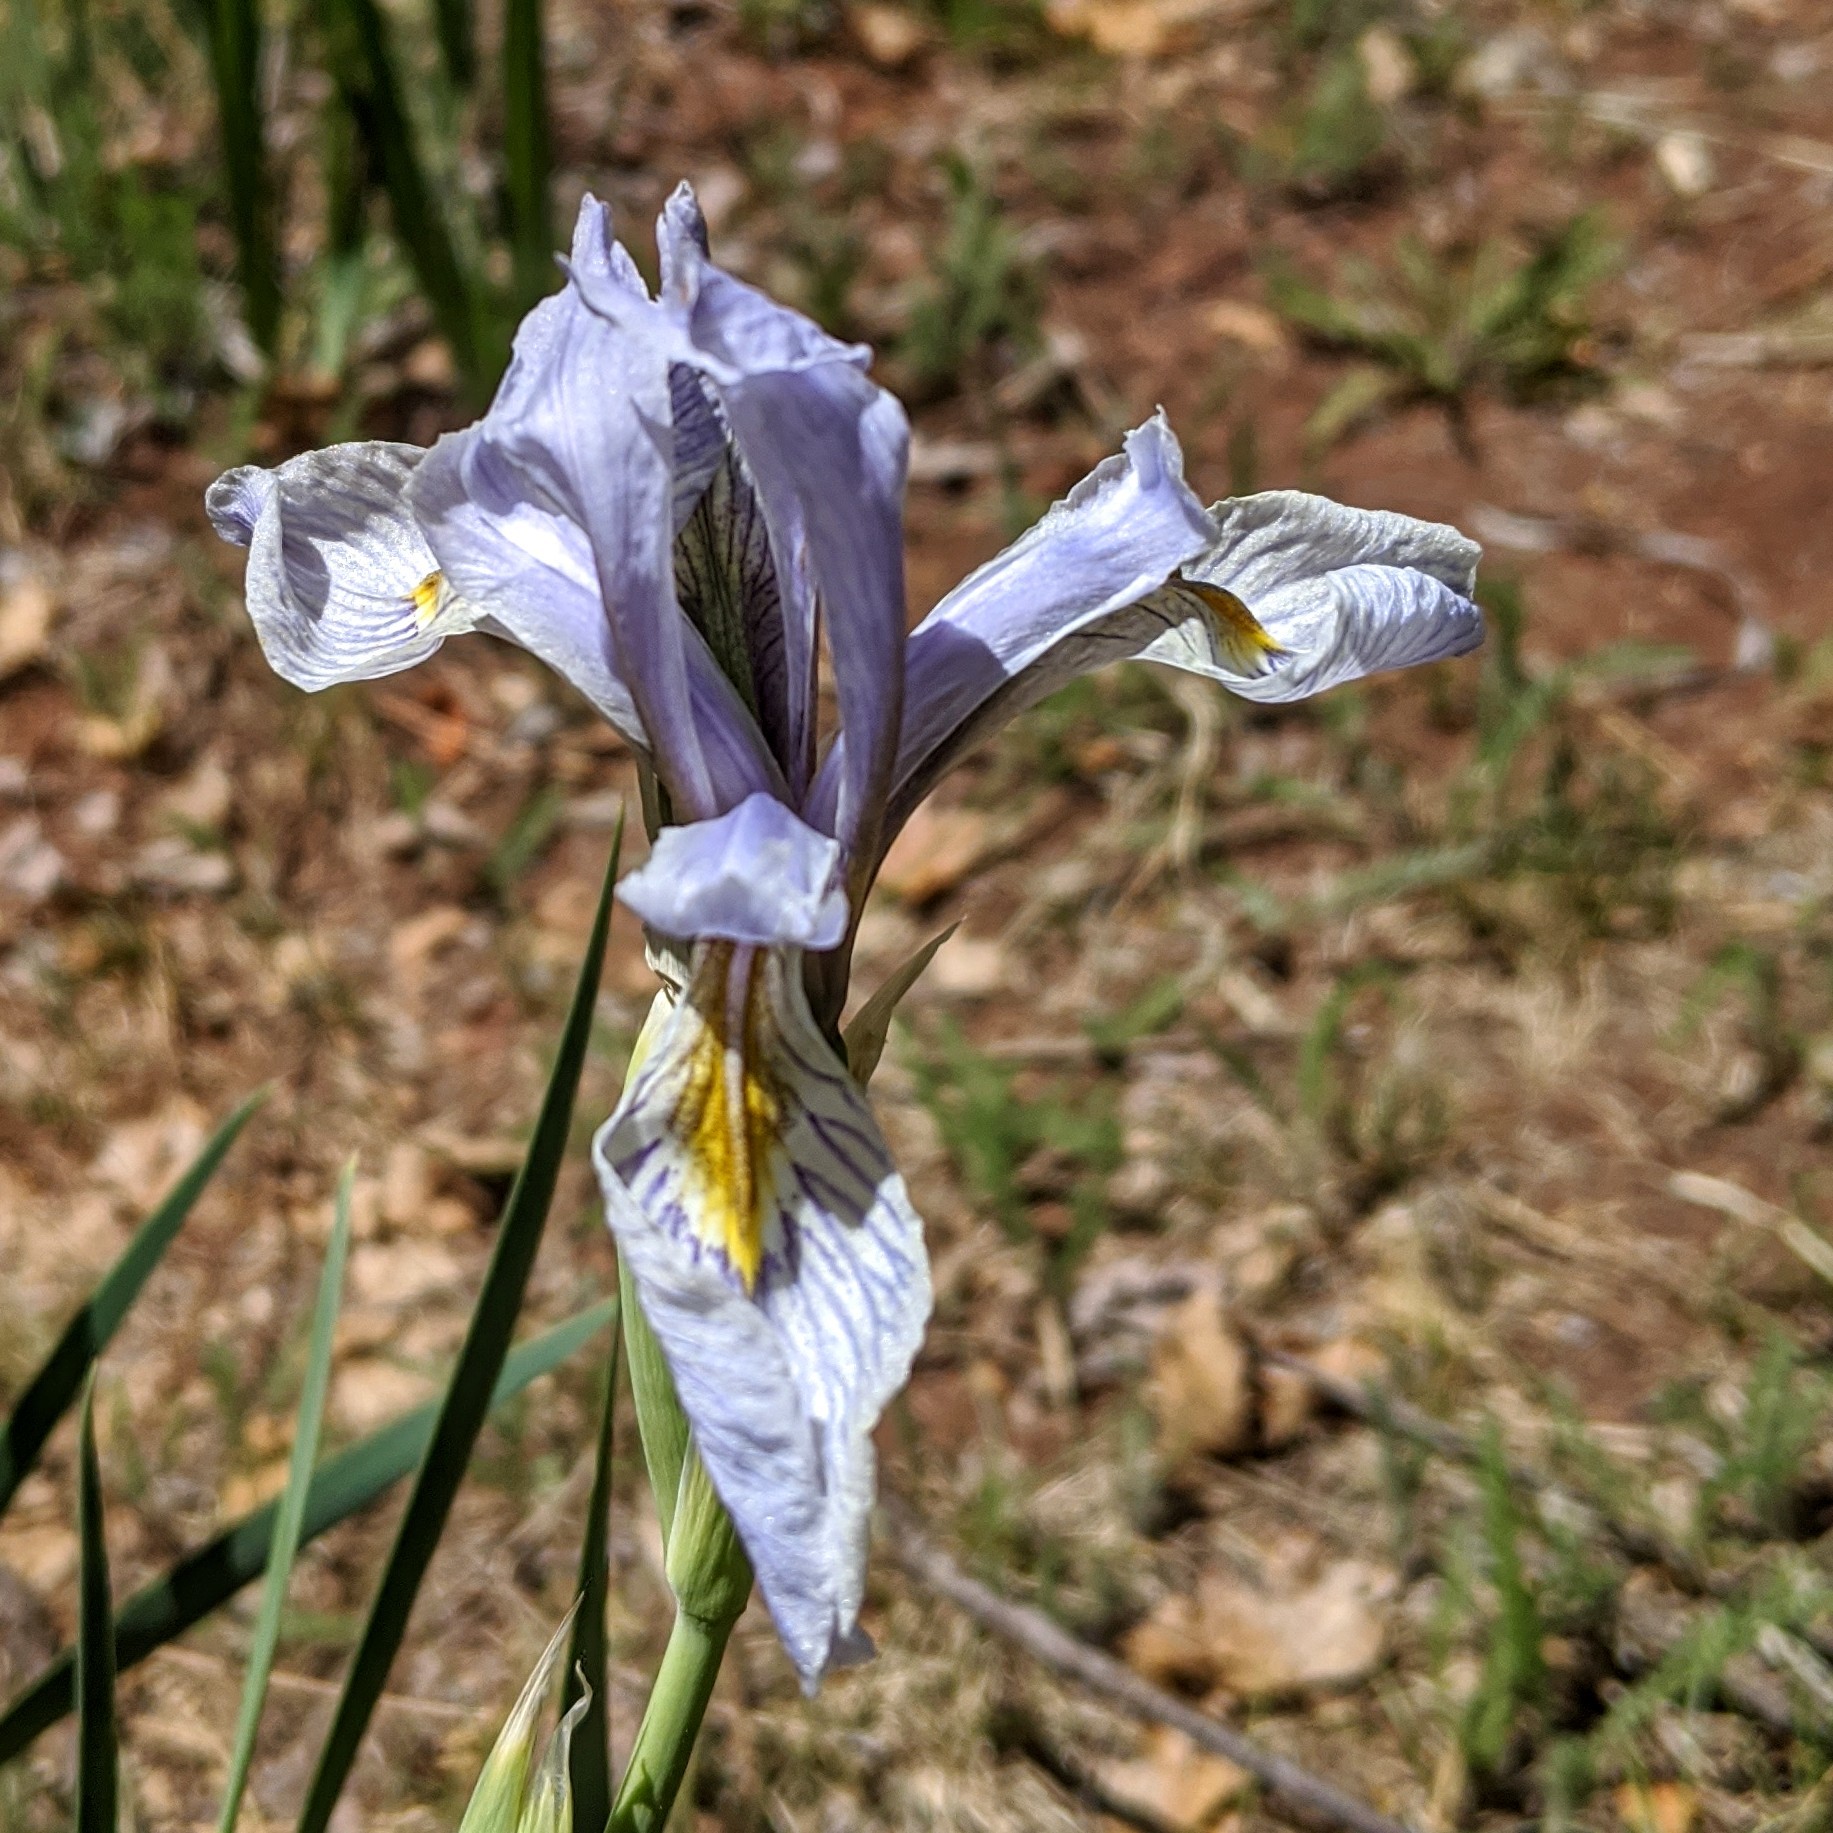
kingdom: Plantae
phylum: Tracheophyta
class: Liliopsida
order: Asparagales
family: Iridaceae
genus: Iris
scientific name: Iris missouriensis
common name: Rocky mountain iris
